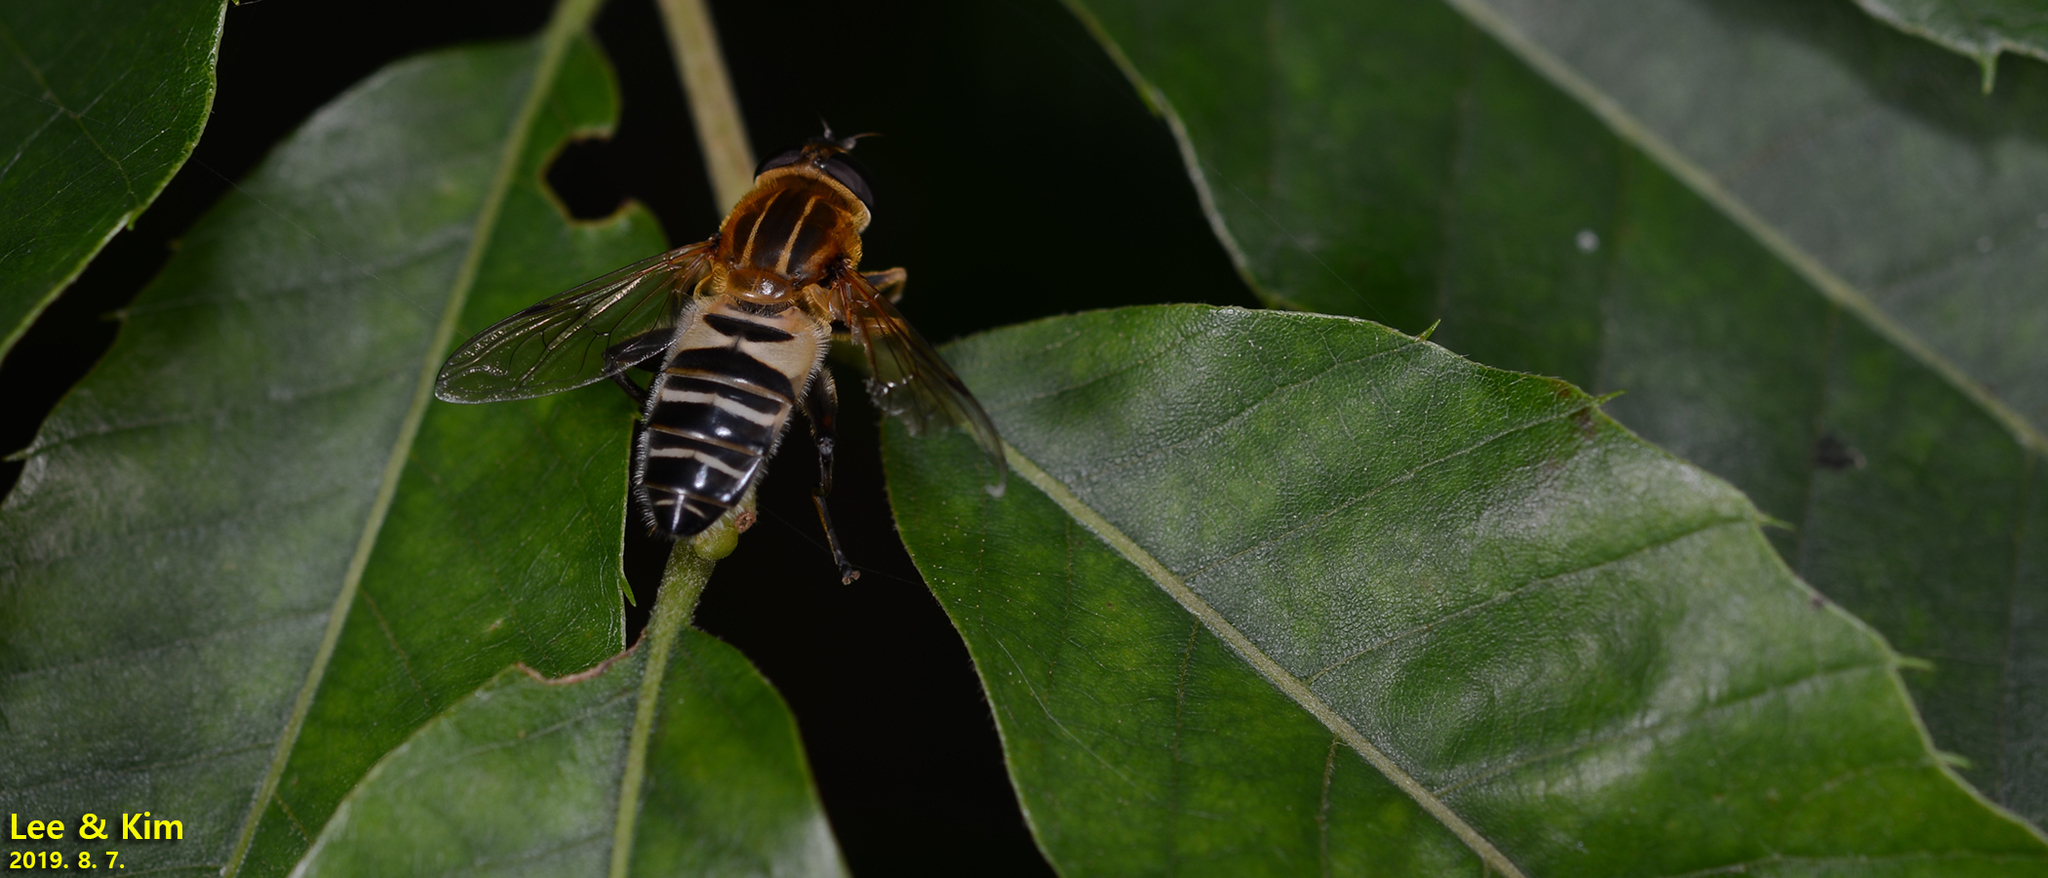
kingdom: Animalia
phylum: Arthropoda
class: Insecta
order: Diptera
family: Syrphidae
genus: Helophilus
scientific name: Helophilus eristaloideus
